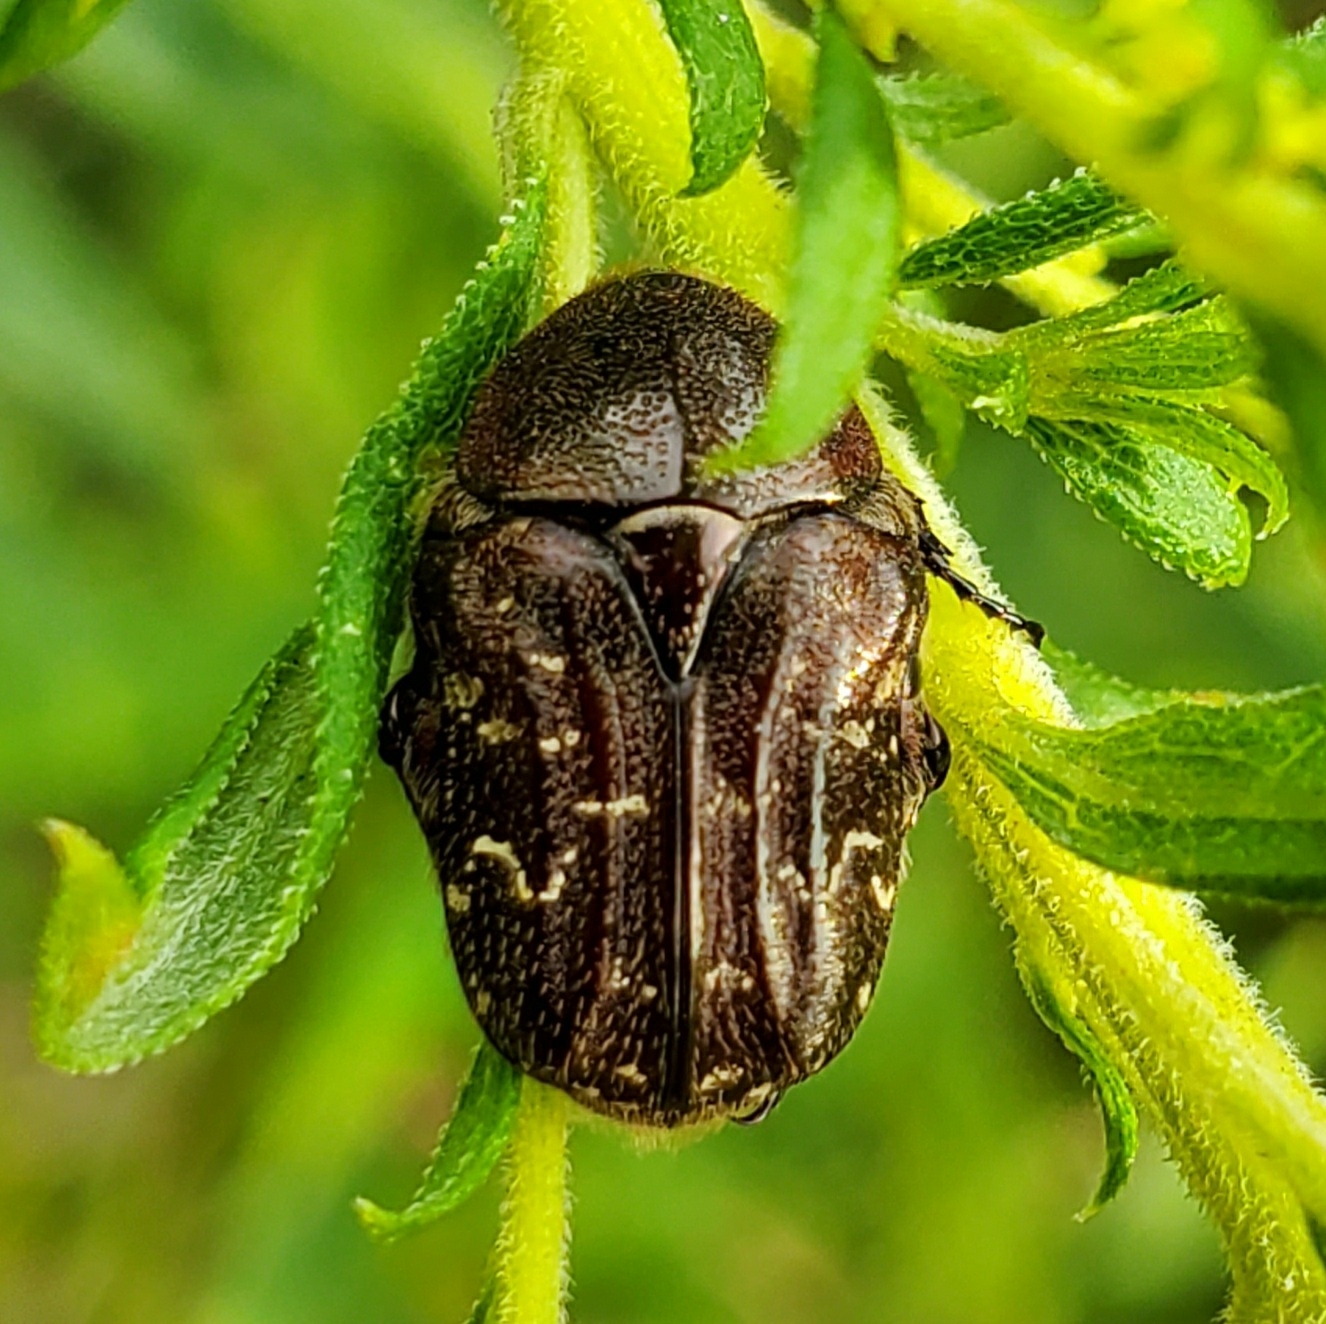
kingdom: Animalia
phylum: Arthropoda
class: Insecta
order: Coleoptera
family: Scarabaeidae
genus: Euphoria
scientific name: Euphoria sepulcralis
